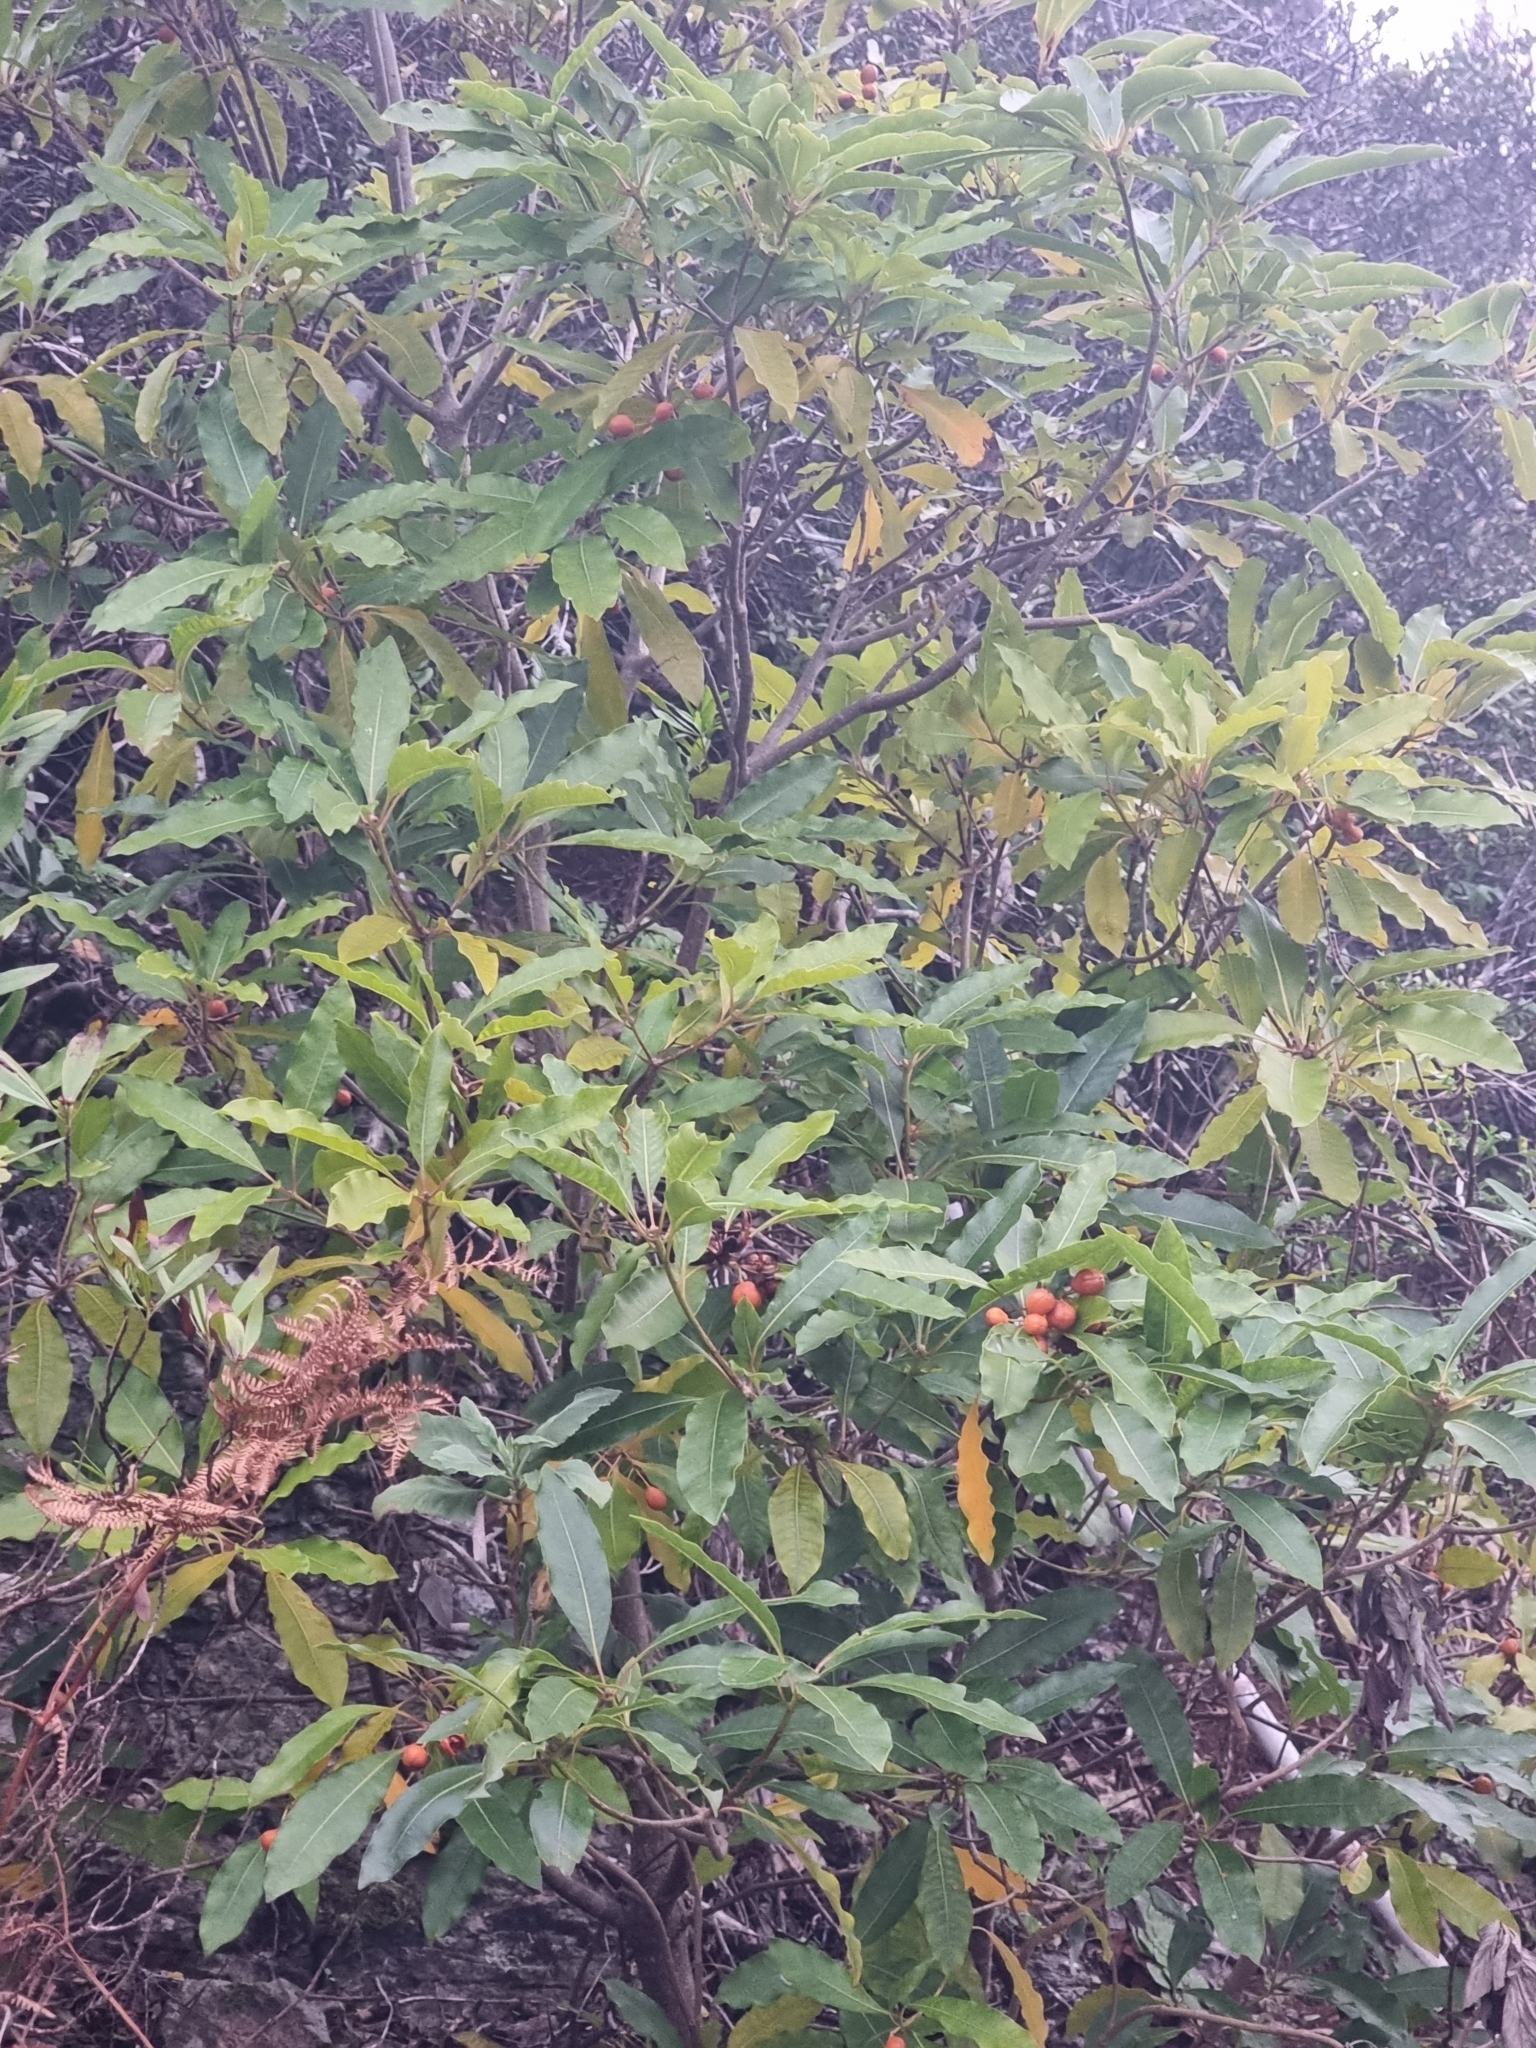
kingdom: Plantae
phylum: Tracheophyta
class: Magnoliopsida
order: Apiales
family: Pittosporaceae
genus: Pittosporum
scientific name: Pittosporum undulatum
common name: Australian cheesewood
